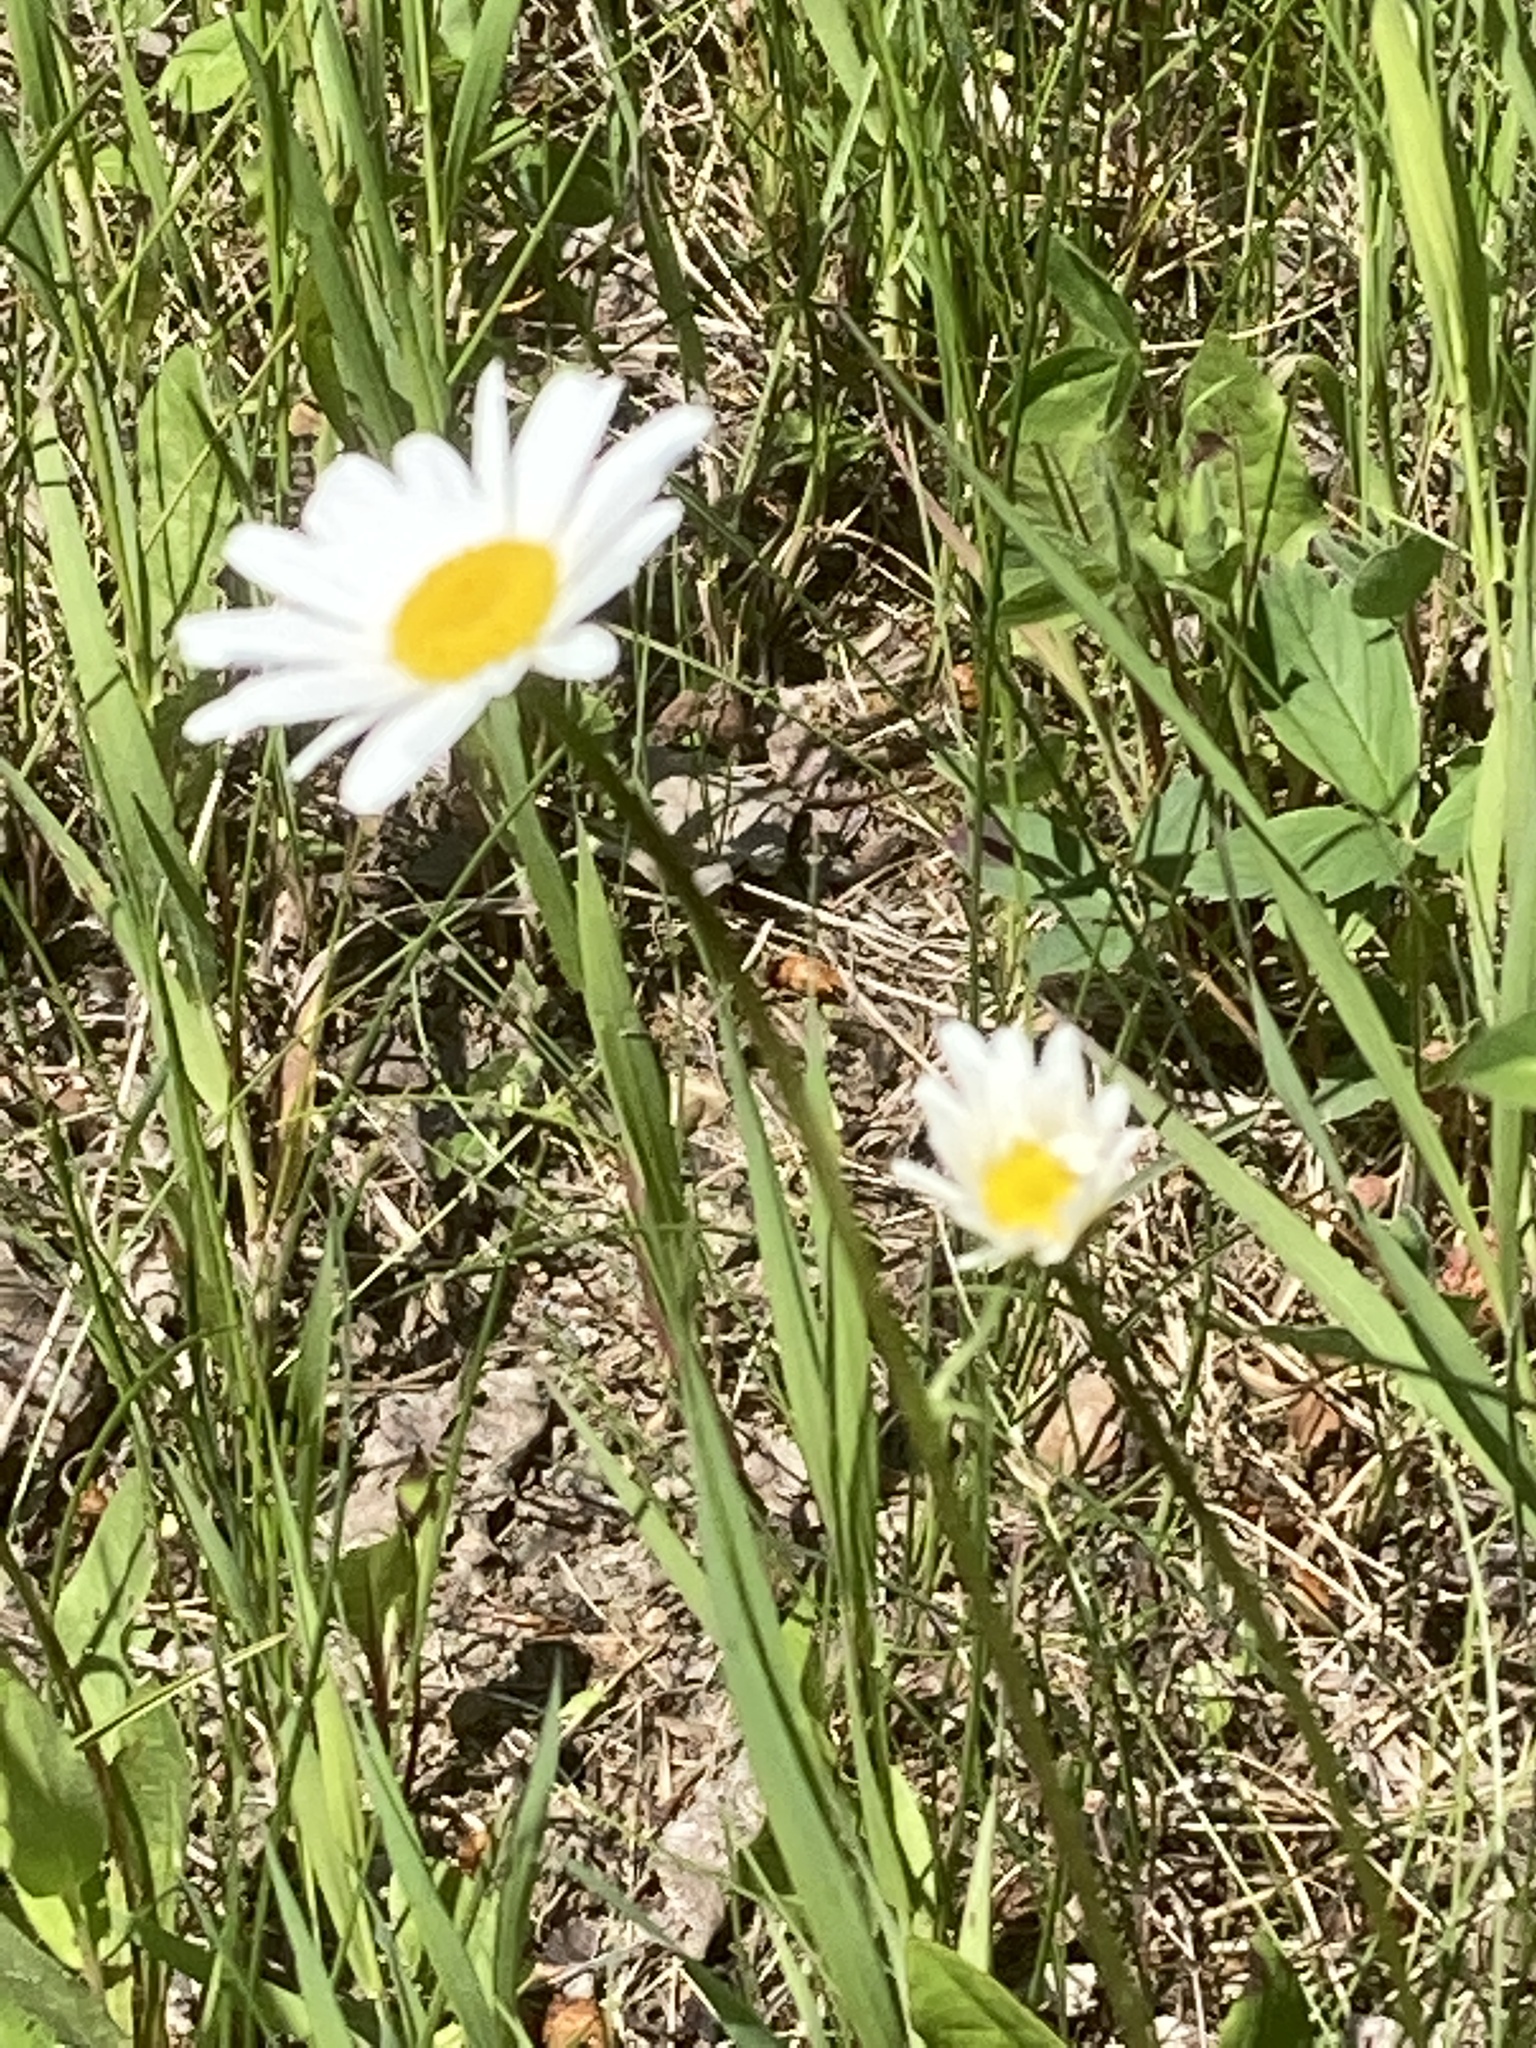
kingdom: Plantae
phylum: Tracheophyta
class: Magnoliopsida
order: Asterales
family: Asteraceae
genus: Leucanthemum
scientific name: Leucanthemum vulgare
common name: Oxeye daisy
